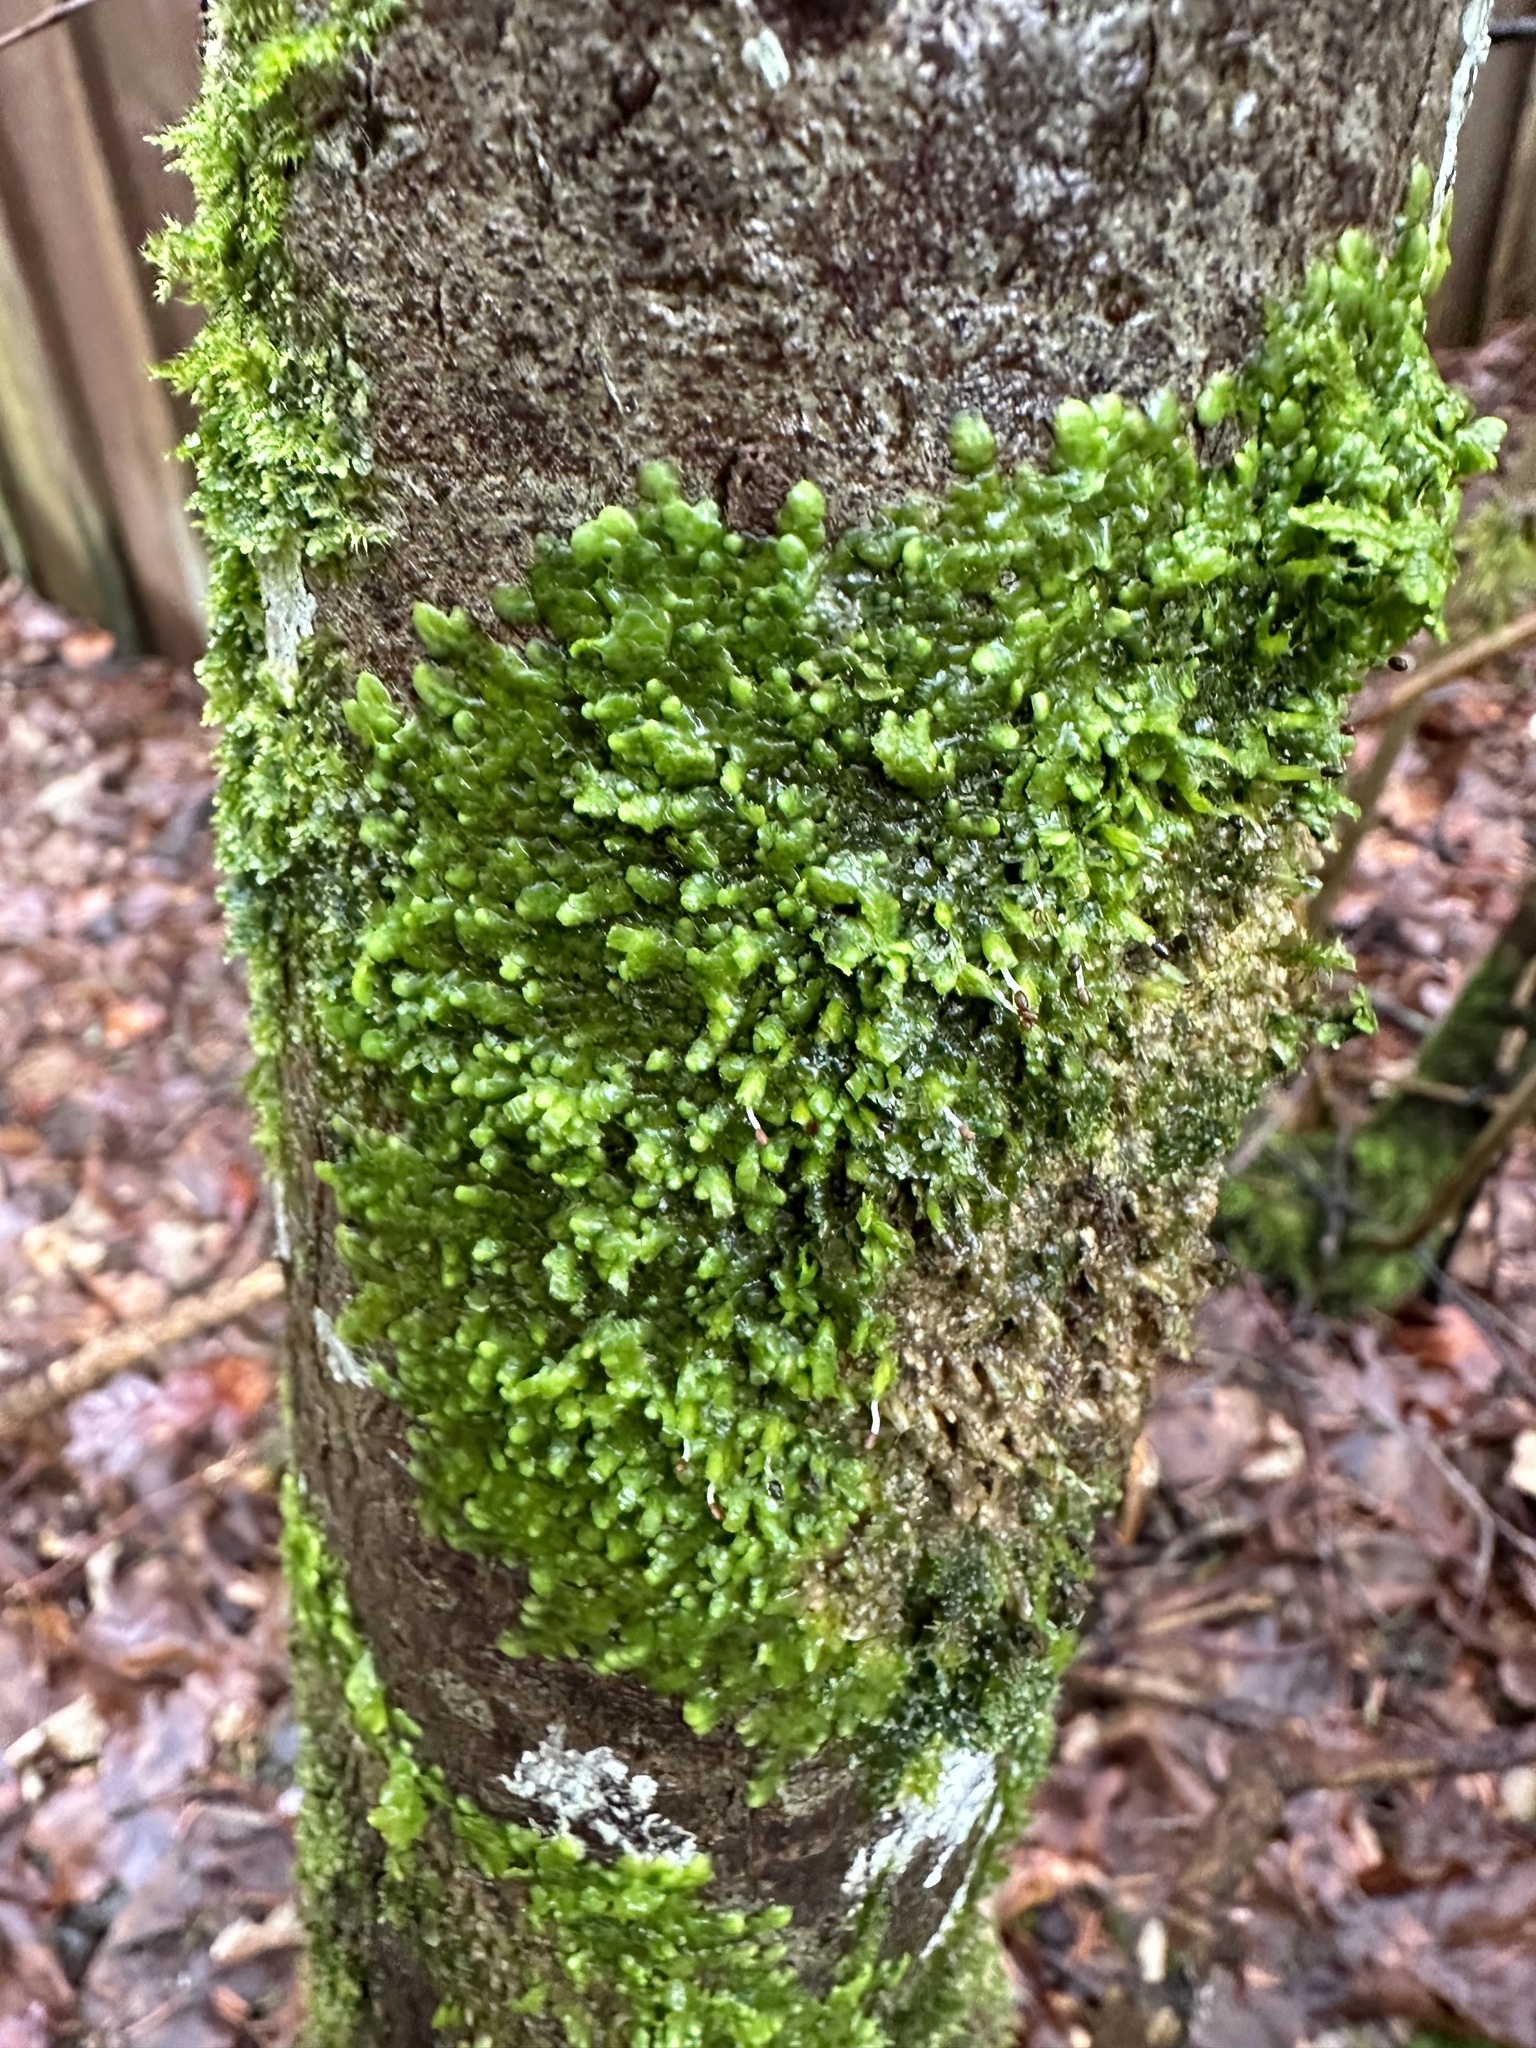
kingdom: Plantae
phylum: Marchantiophyta
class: Jungermanniopsida
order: Porellales
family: Radulaceae
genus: Radula
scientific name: Radula complanata
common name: Flat-leaved scalewort
